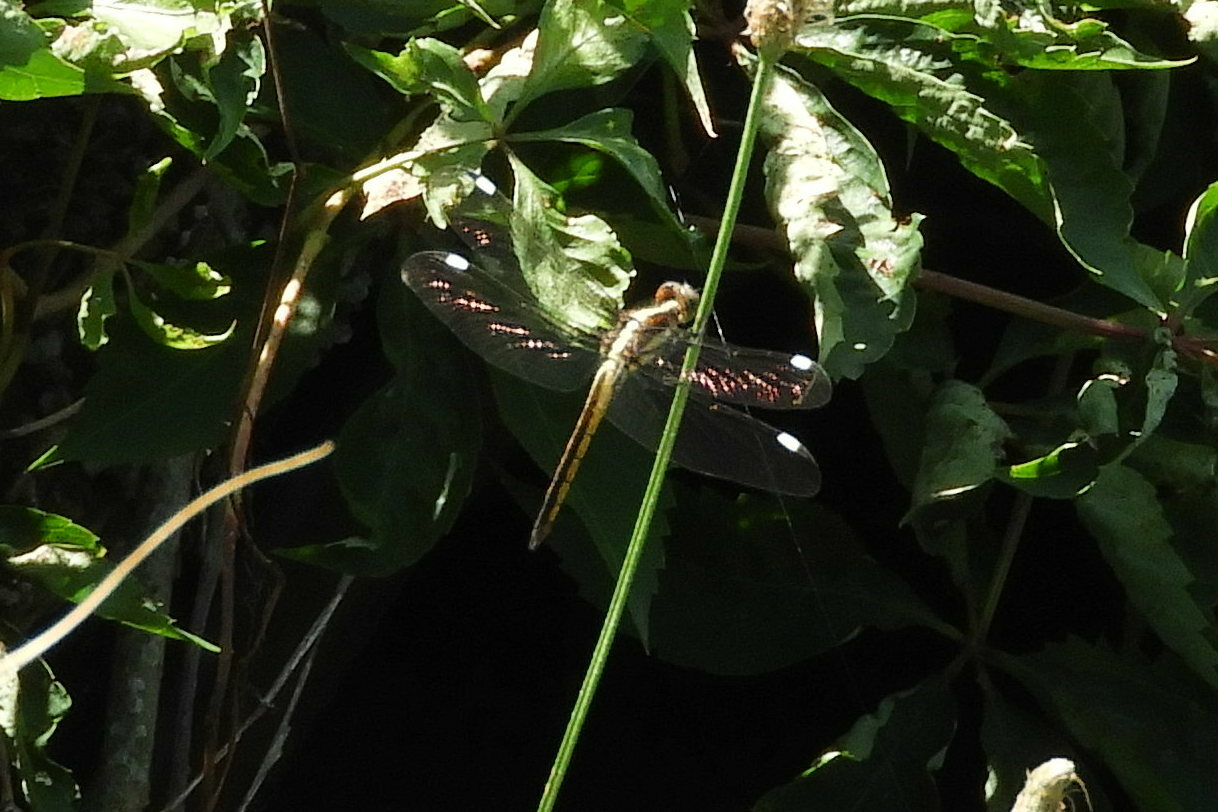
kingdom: Animalia
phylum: Arthropoda
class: Insecta
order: Odonata
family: Libellulidae
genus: Libellula
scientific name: Libellula cyanea
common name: Spangled skimmer
